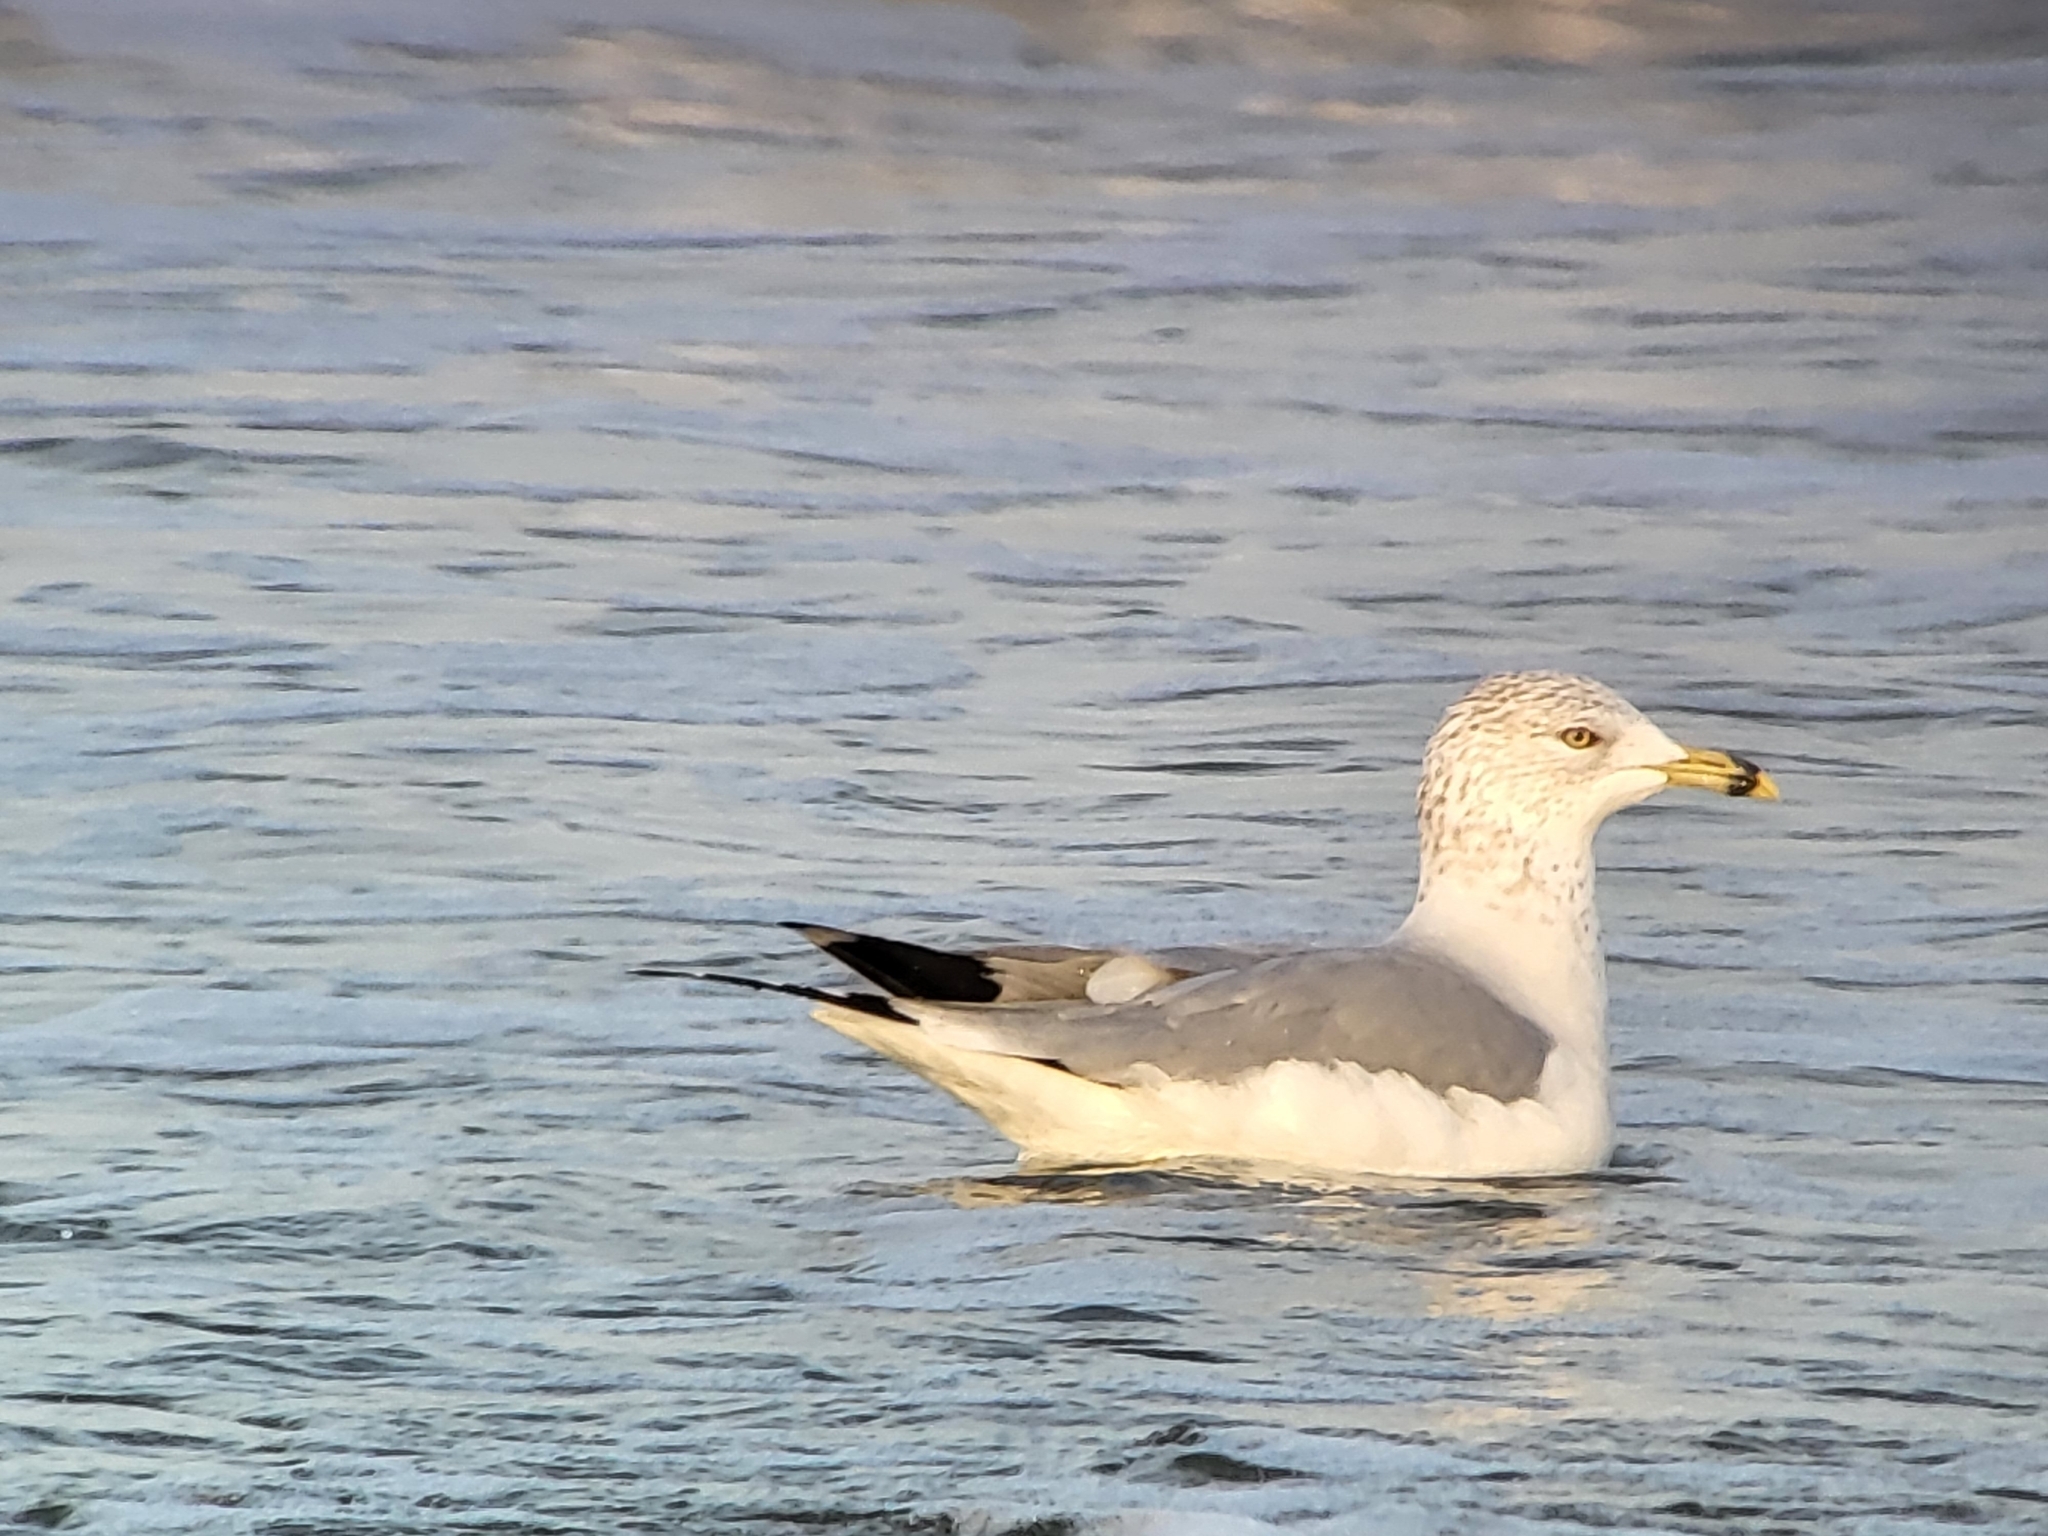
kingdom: Animalia
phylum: Chordata
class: Aves
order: Charadriiformes
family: Laridae
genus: Larus
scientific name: Larus delawarensis
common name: Ring-billed gull
